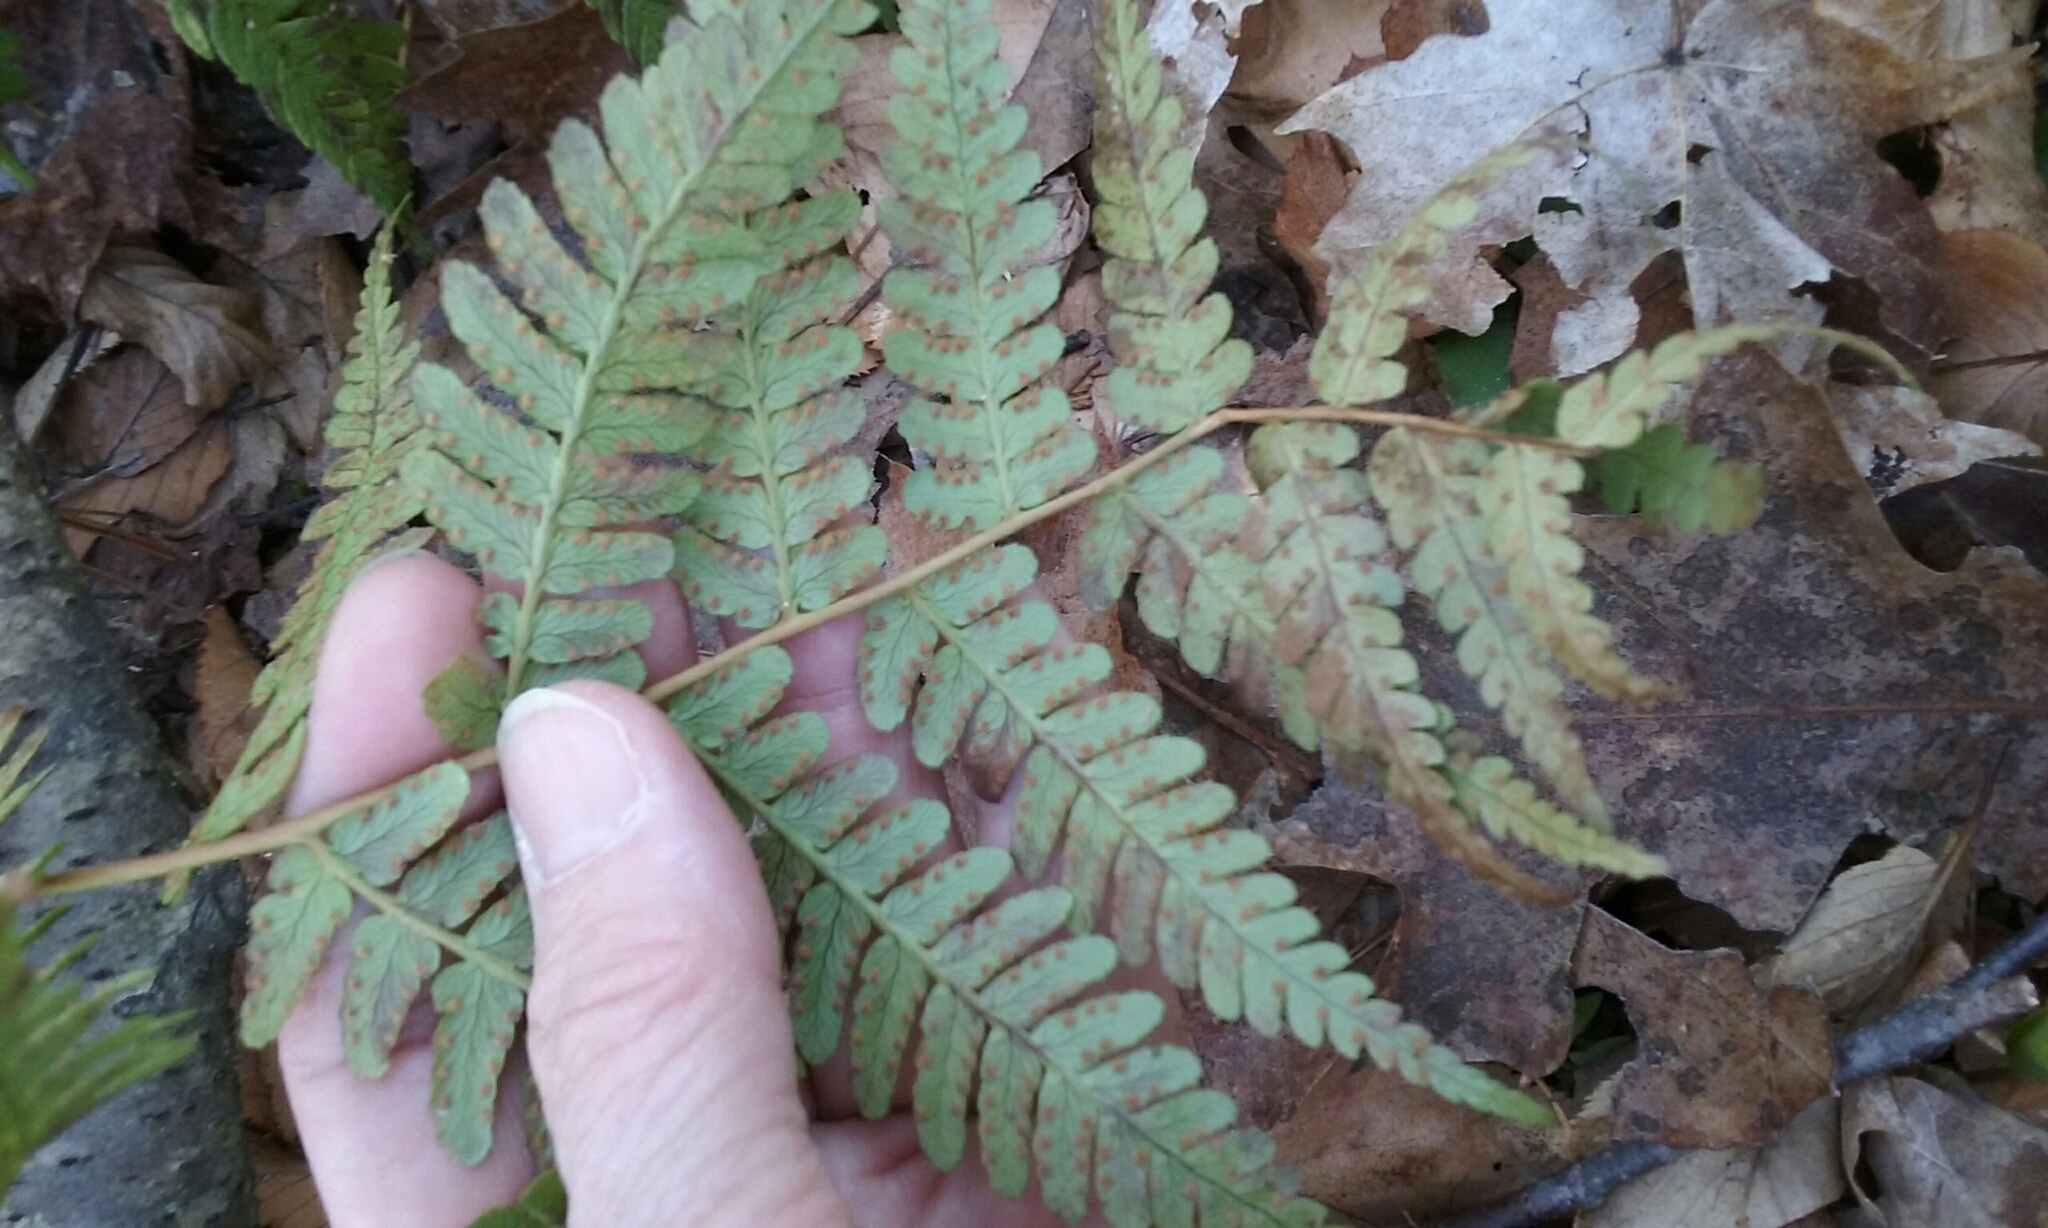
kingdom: Plantae
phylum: Tracheophyta
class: Polypodiopsida
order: Polypodiales
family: Dryopteridaceae
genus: Dryopteris
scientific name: Dryopteris marginalis
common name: Marginal wood fern
